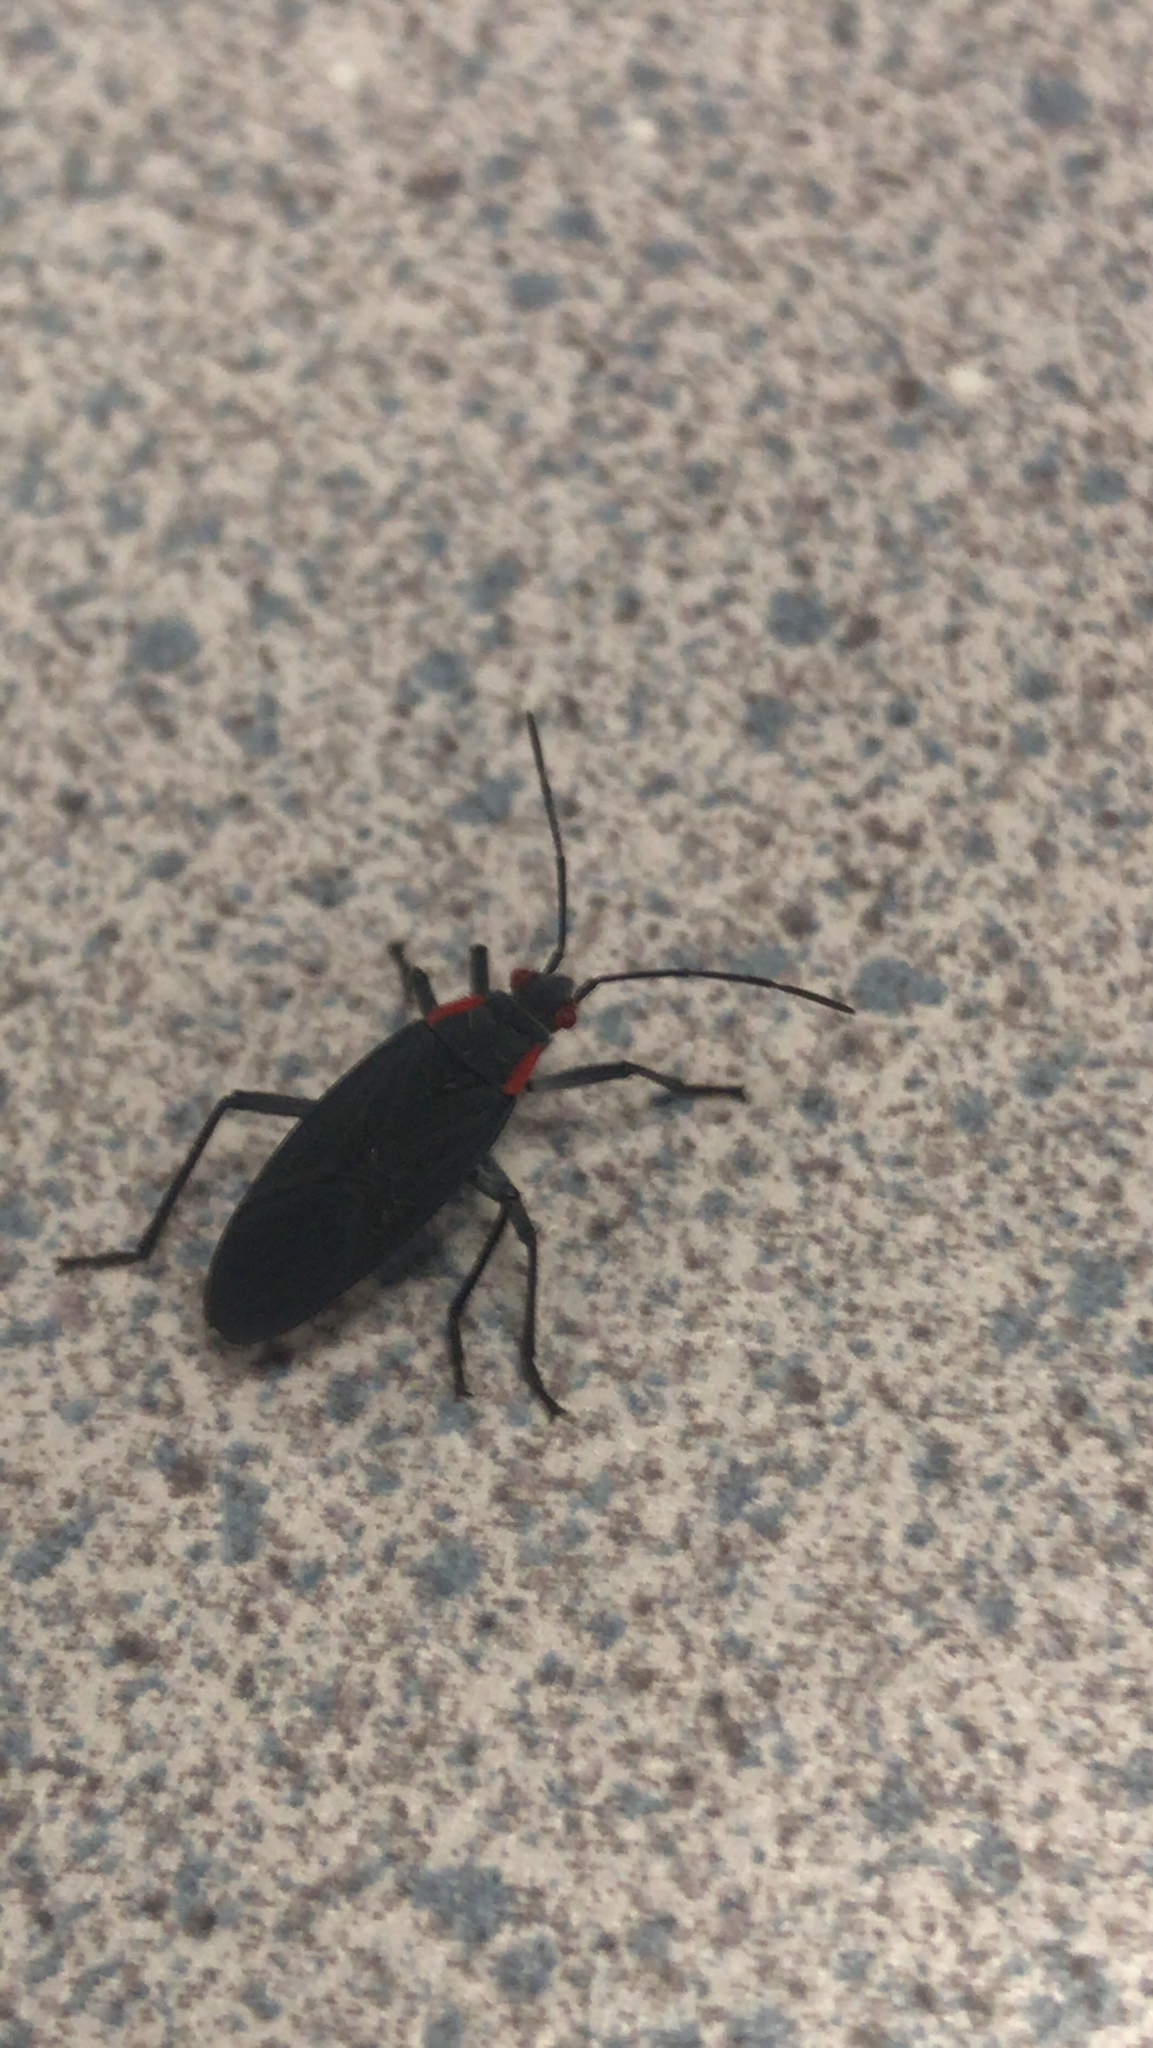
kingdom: Animalia
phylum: Arthropoda
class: Insecta
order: Hemiptera
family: Rhopalidae
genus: Jadera
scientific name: Jadera haematoloma
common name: Red-shouldered bug
